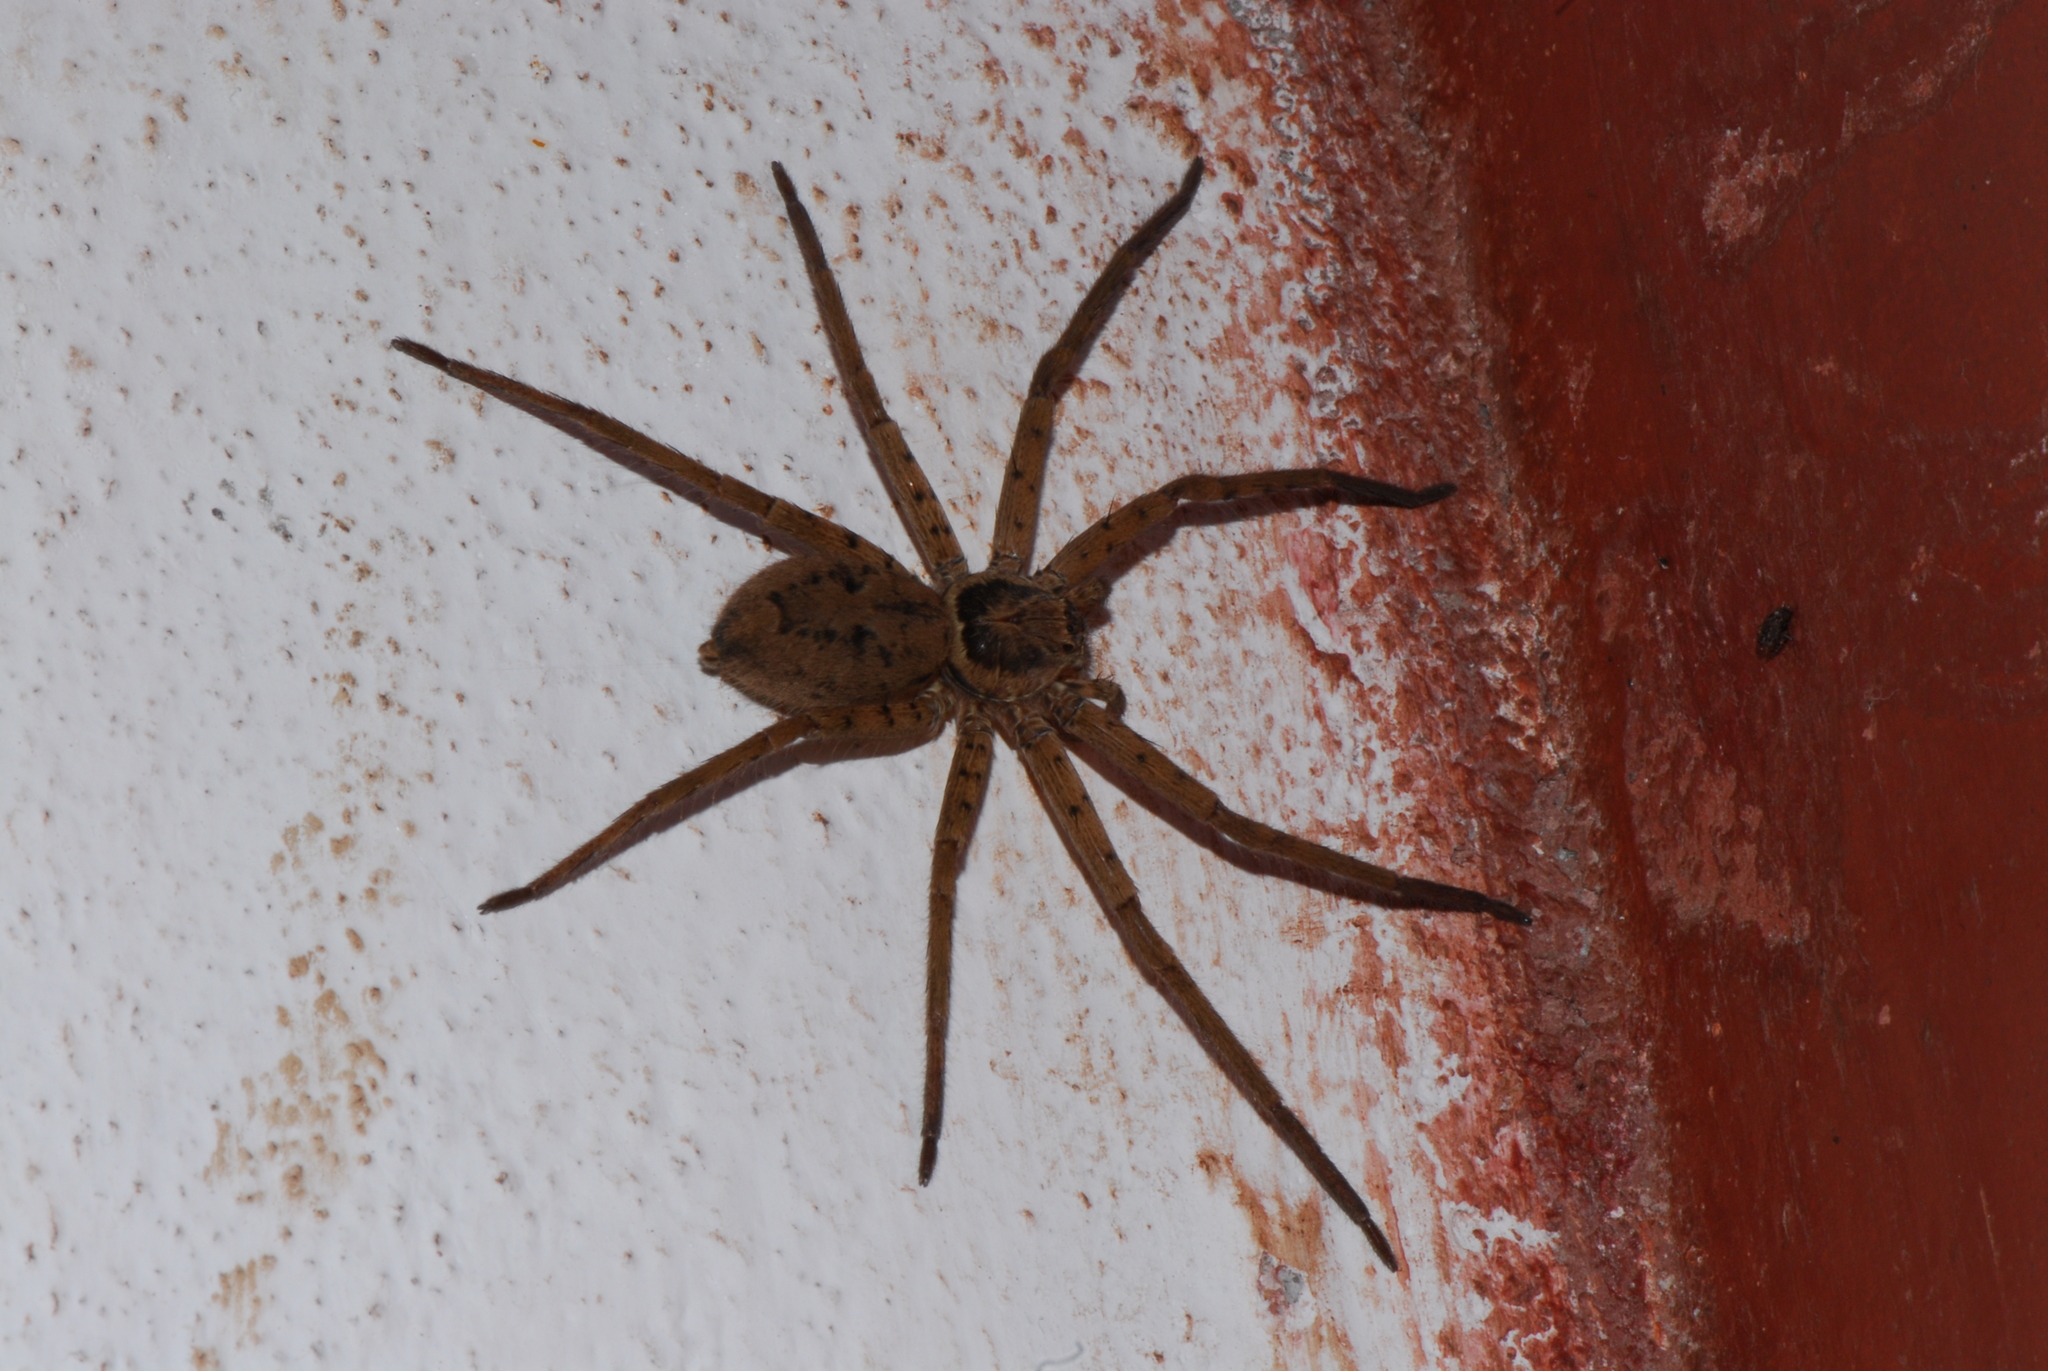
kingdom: Animalia
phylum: Arthropoda
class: Arachnida
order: Araneae
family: Sparassidae
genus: Heteropoda
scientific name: Heteropoda venatoria
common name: Huntsman spider
